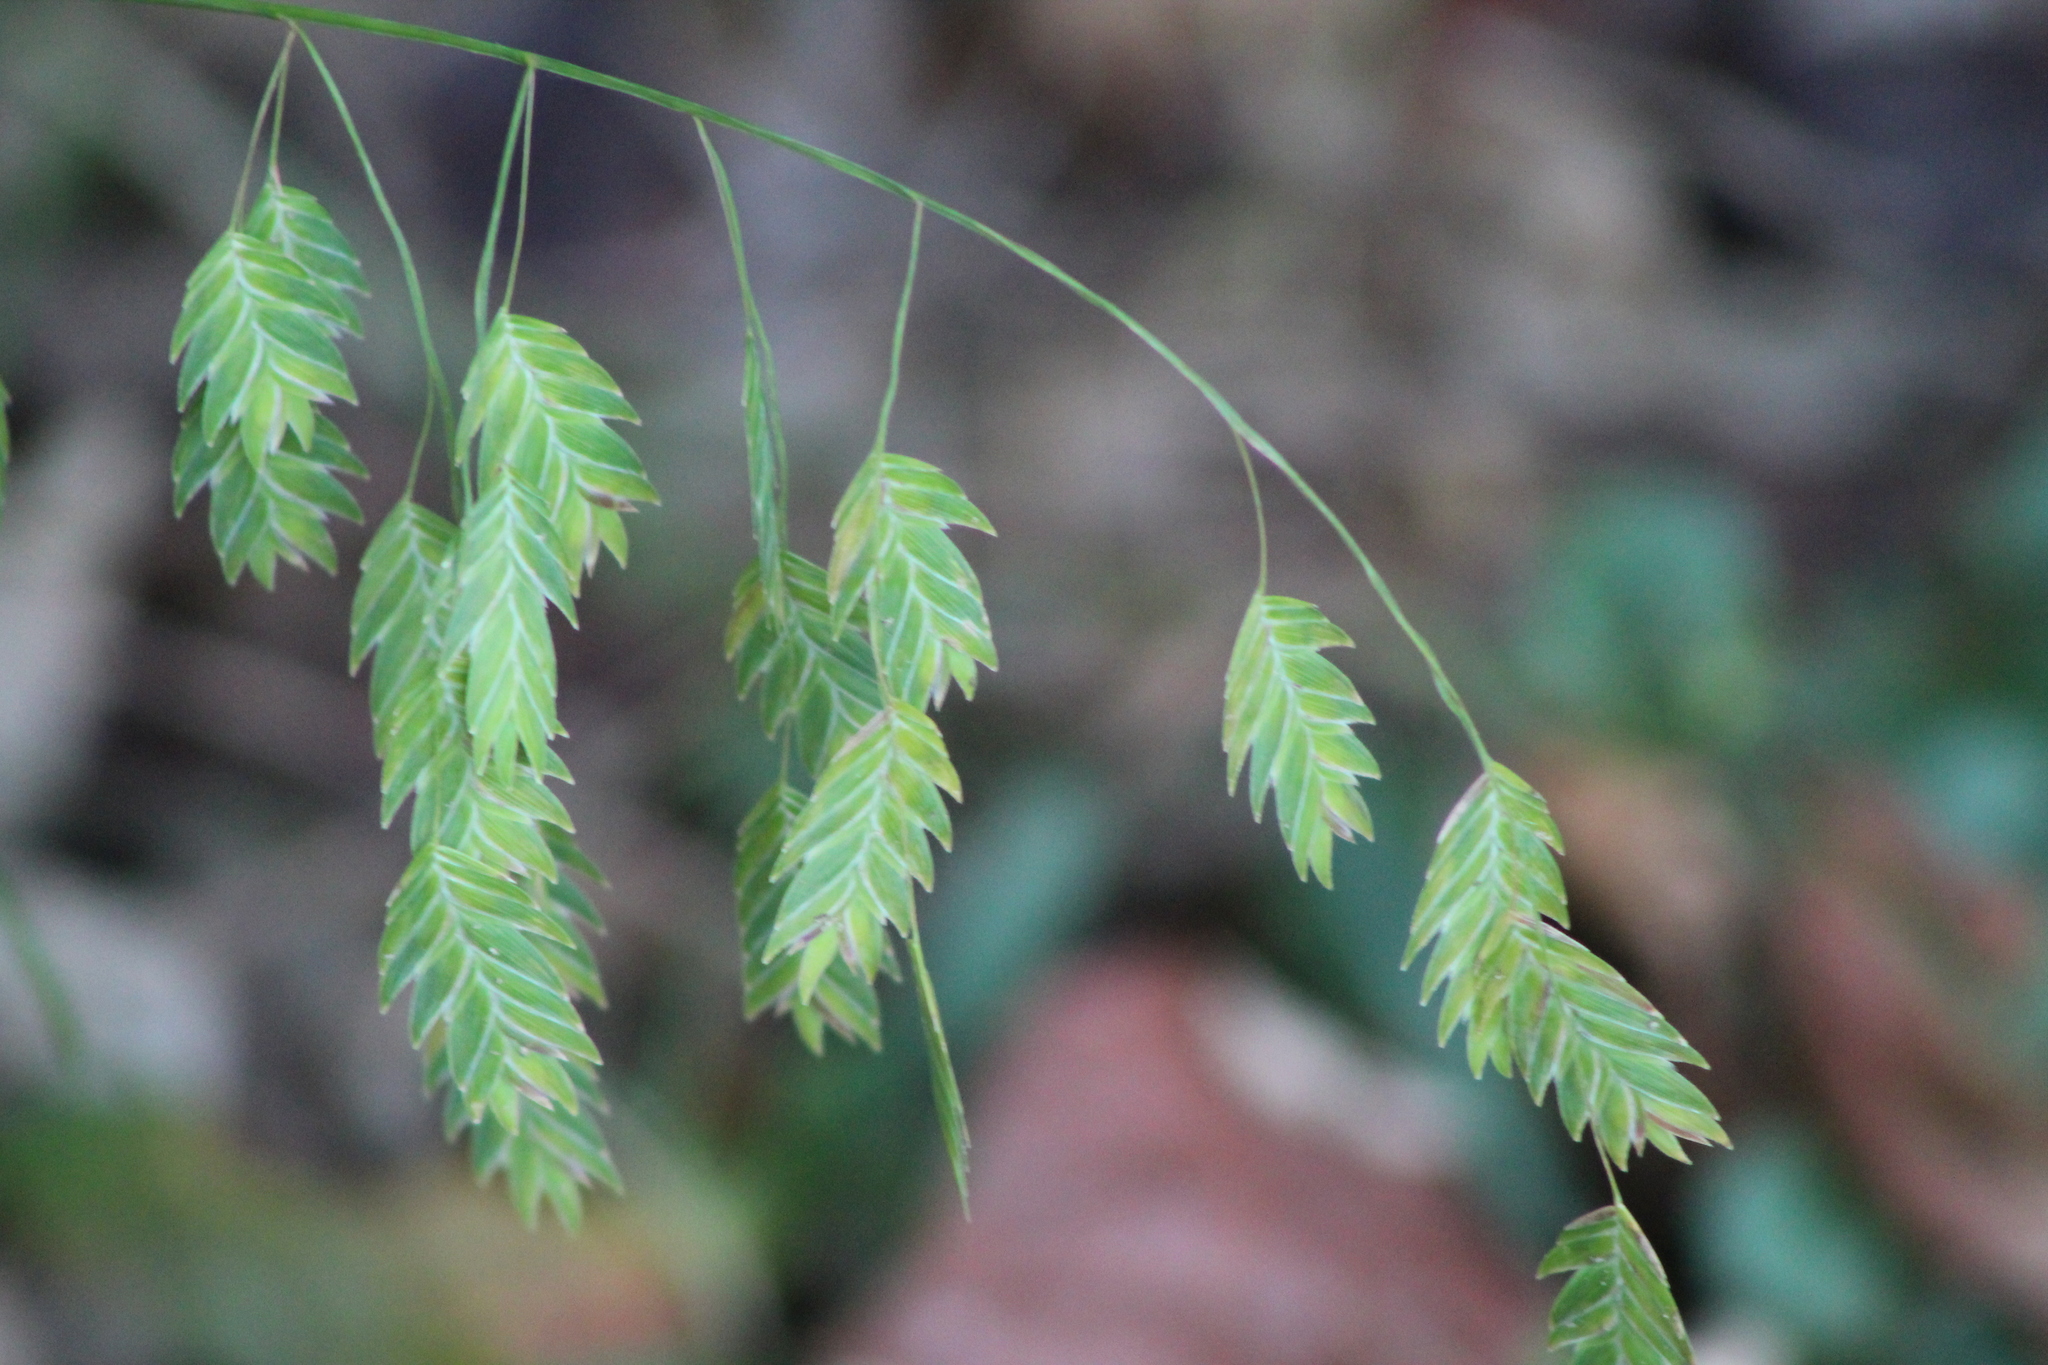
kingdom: Plantae
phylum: Tracheophyta
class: Liliopsida
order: Poales
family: Poaceae
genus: Chasmanthium
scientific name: Chasmanthium latifolium
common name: Broad-leaved chasmanthium
